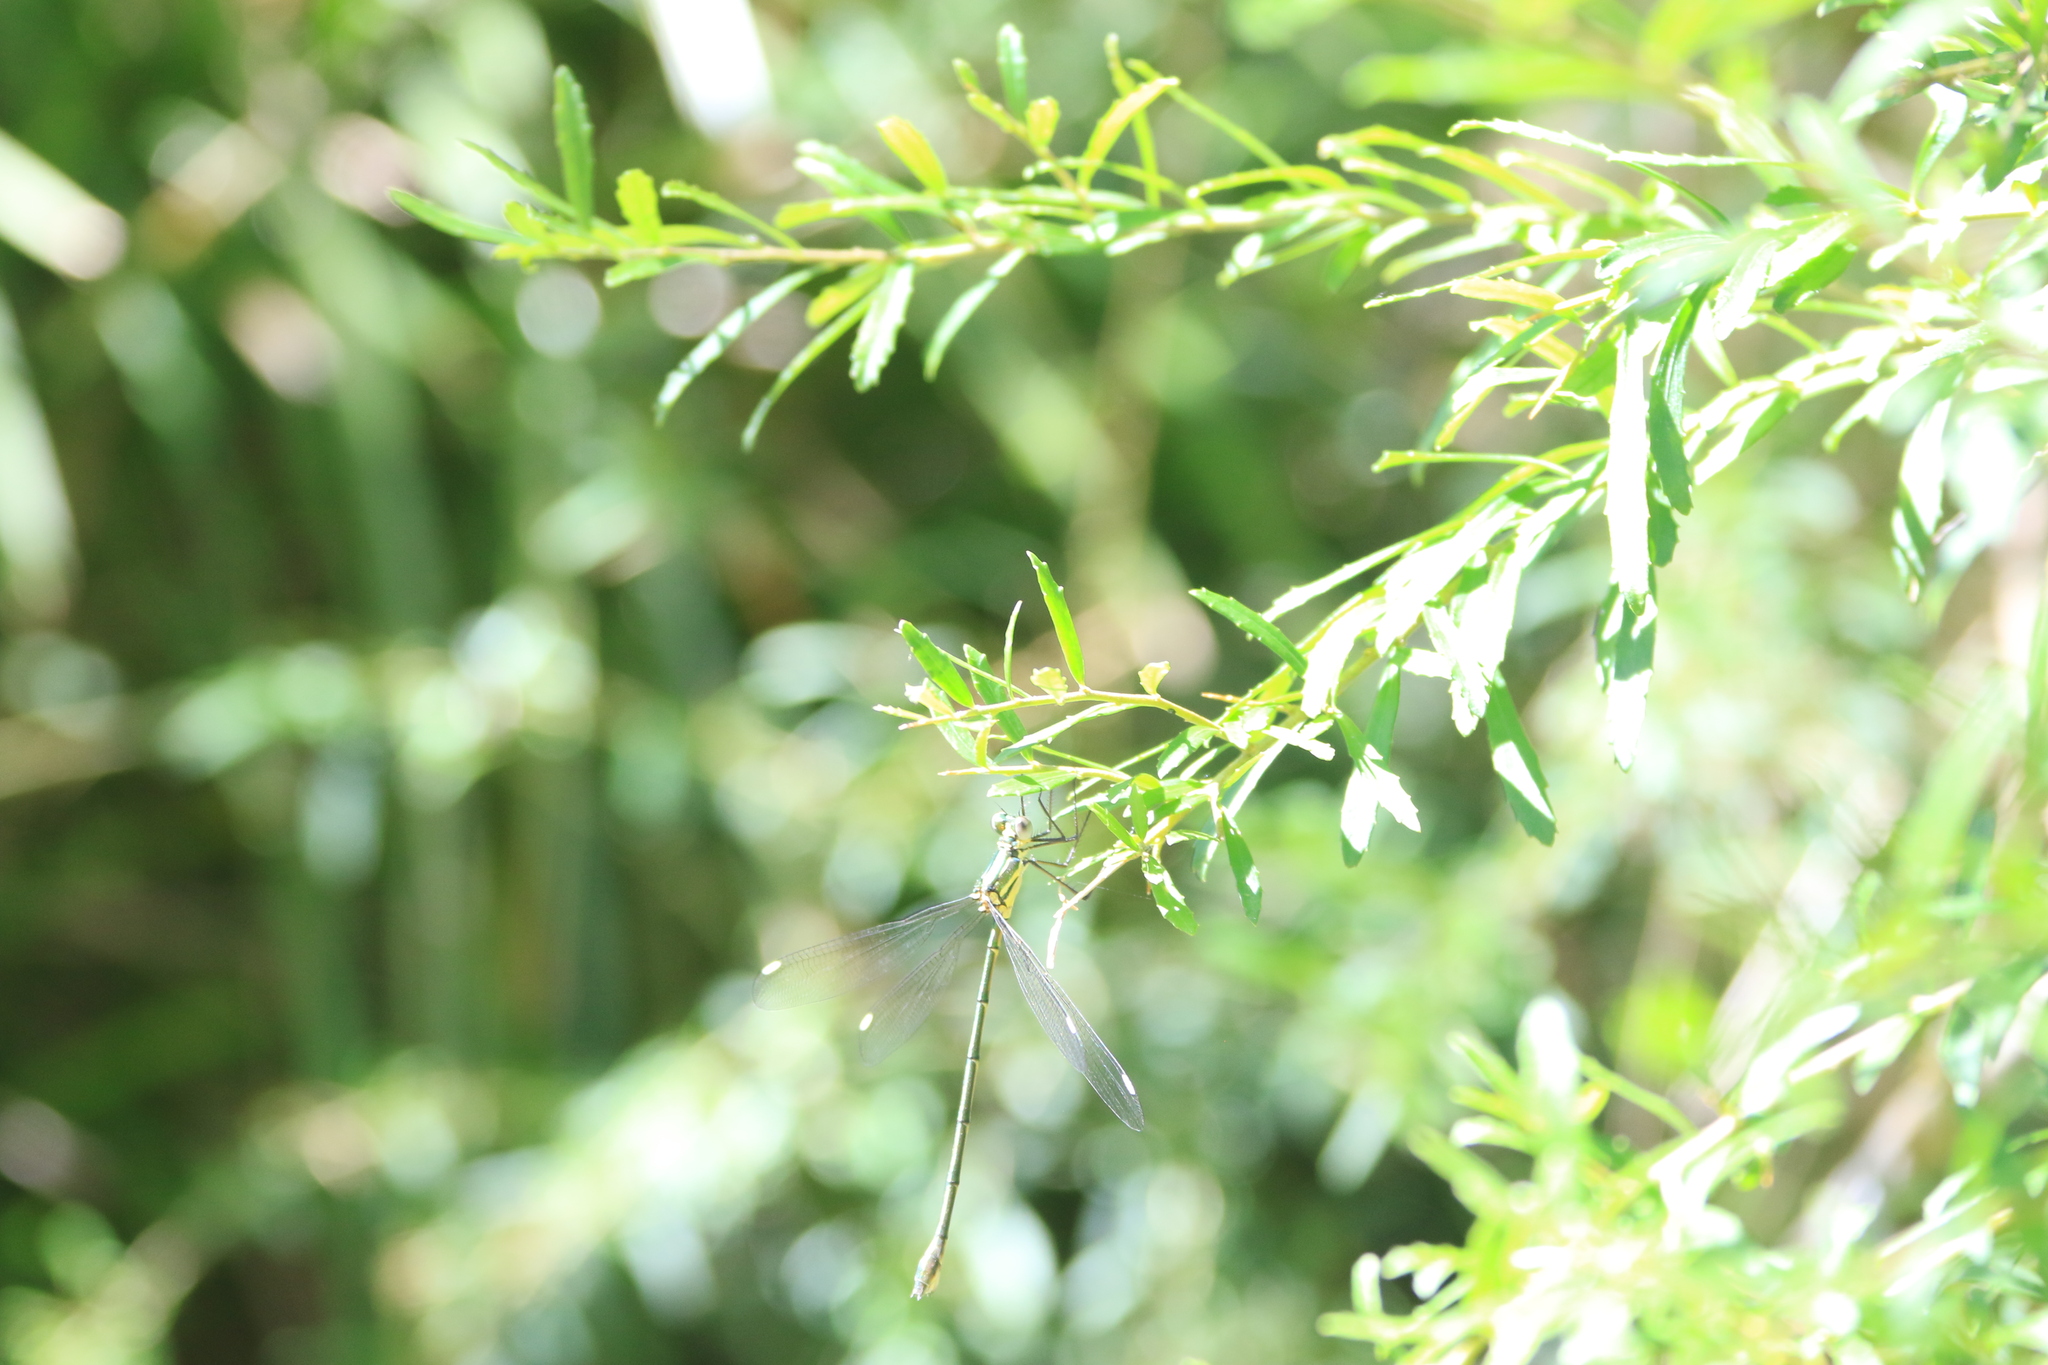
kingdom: Animalia
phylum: Arthropoda
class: Insecta
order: Odonata
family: Synlestidae
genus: Synlestes
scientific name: Synlestes weyersii
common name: Bronze needle
